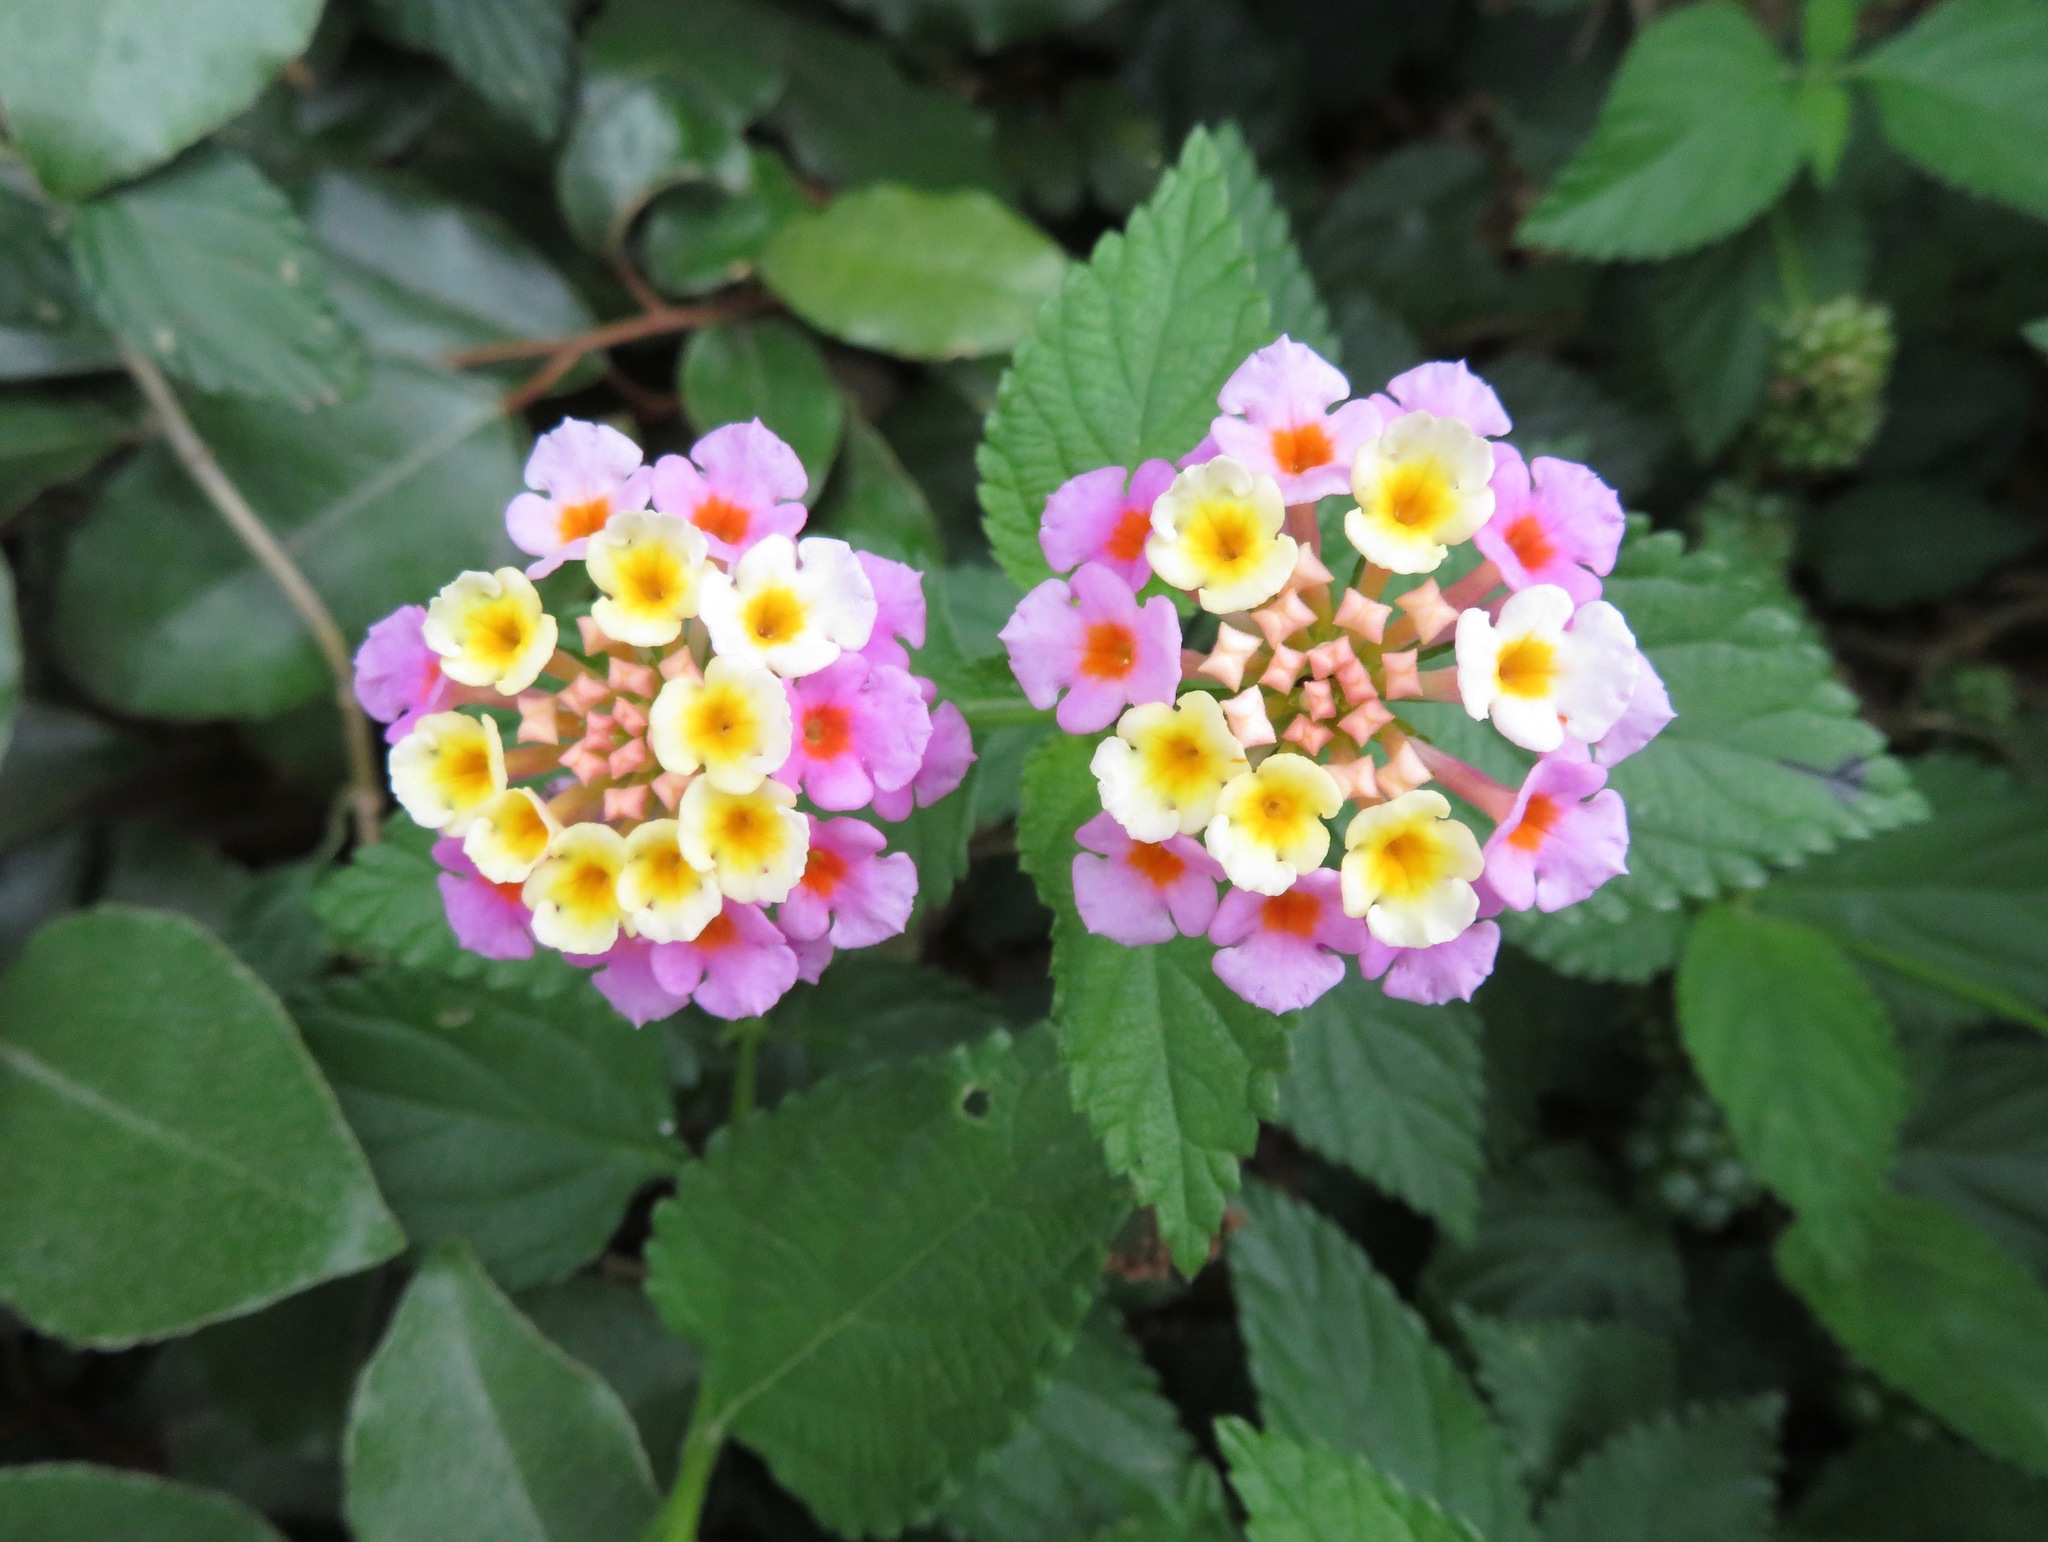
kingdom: Plantae
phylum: Tracheophyta
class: Magnoliopsida
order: Lamiales
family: Verbenaceae
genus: Lantana
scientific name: Lantana camara
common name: Lantana
